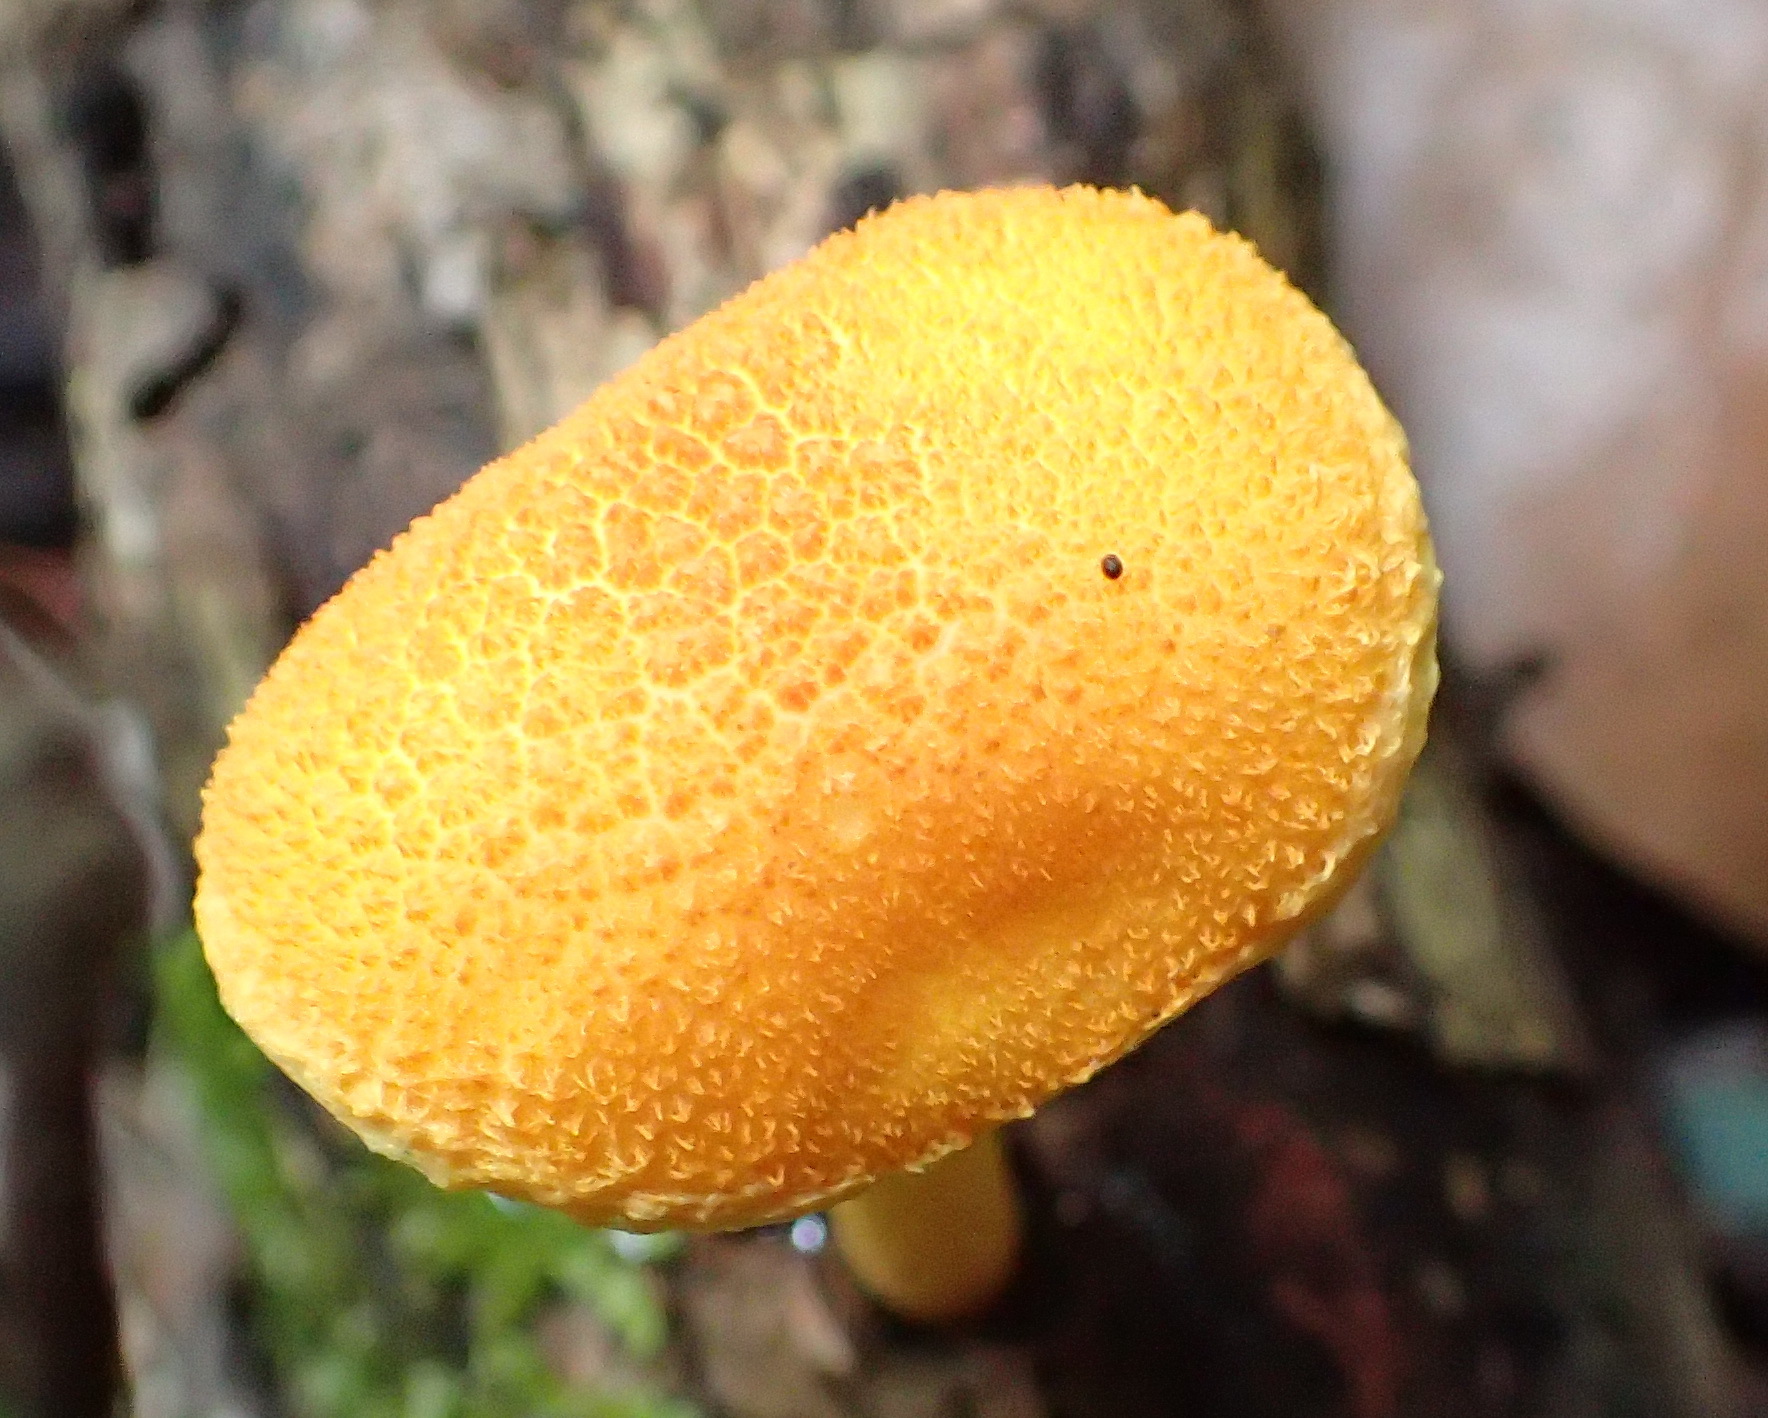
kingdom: Fungi
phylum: Basidiomycota
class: Agaricomycetes
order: Agaricales
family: Physalacriaceae
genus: Cyptotrama
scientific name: Cyptotrama asprata
